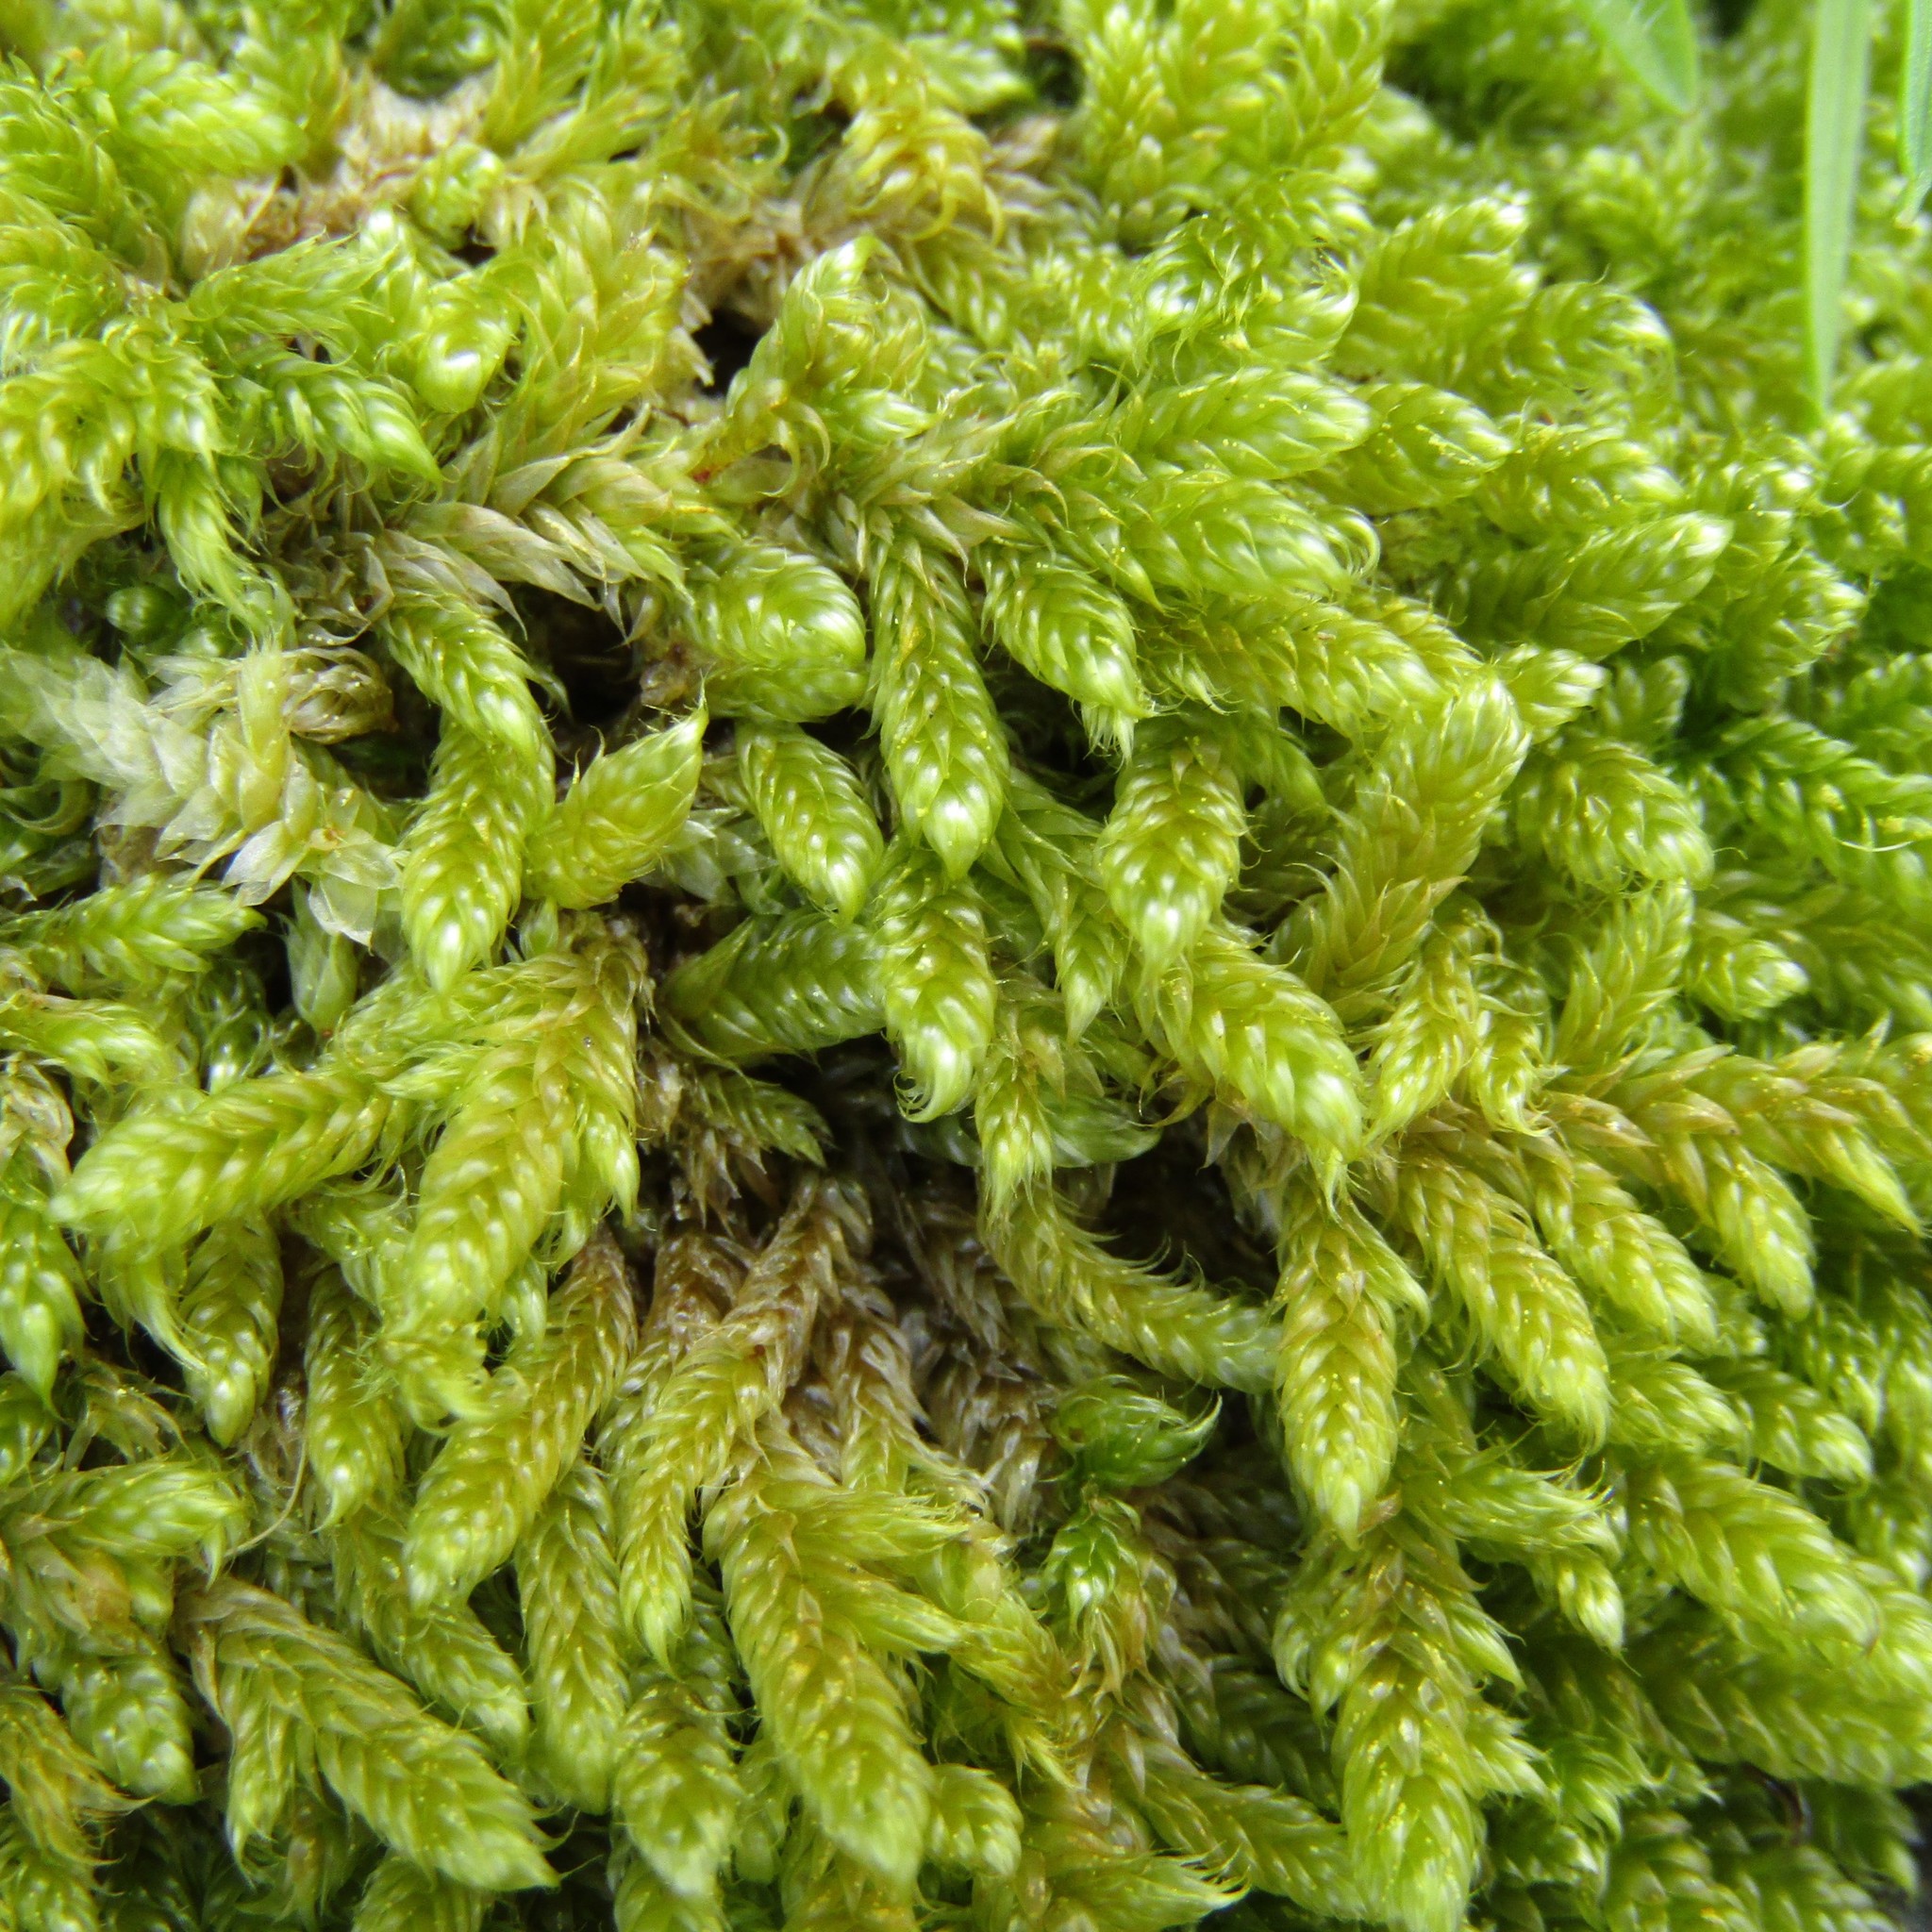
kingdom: Plantae
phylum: Bryophyta
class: Bryopsida
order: Hypnales
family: Hypnaceae
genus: Hypnum
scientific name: Hypnum cupressiforme
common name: Cypress-leaved plait-moss
